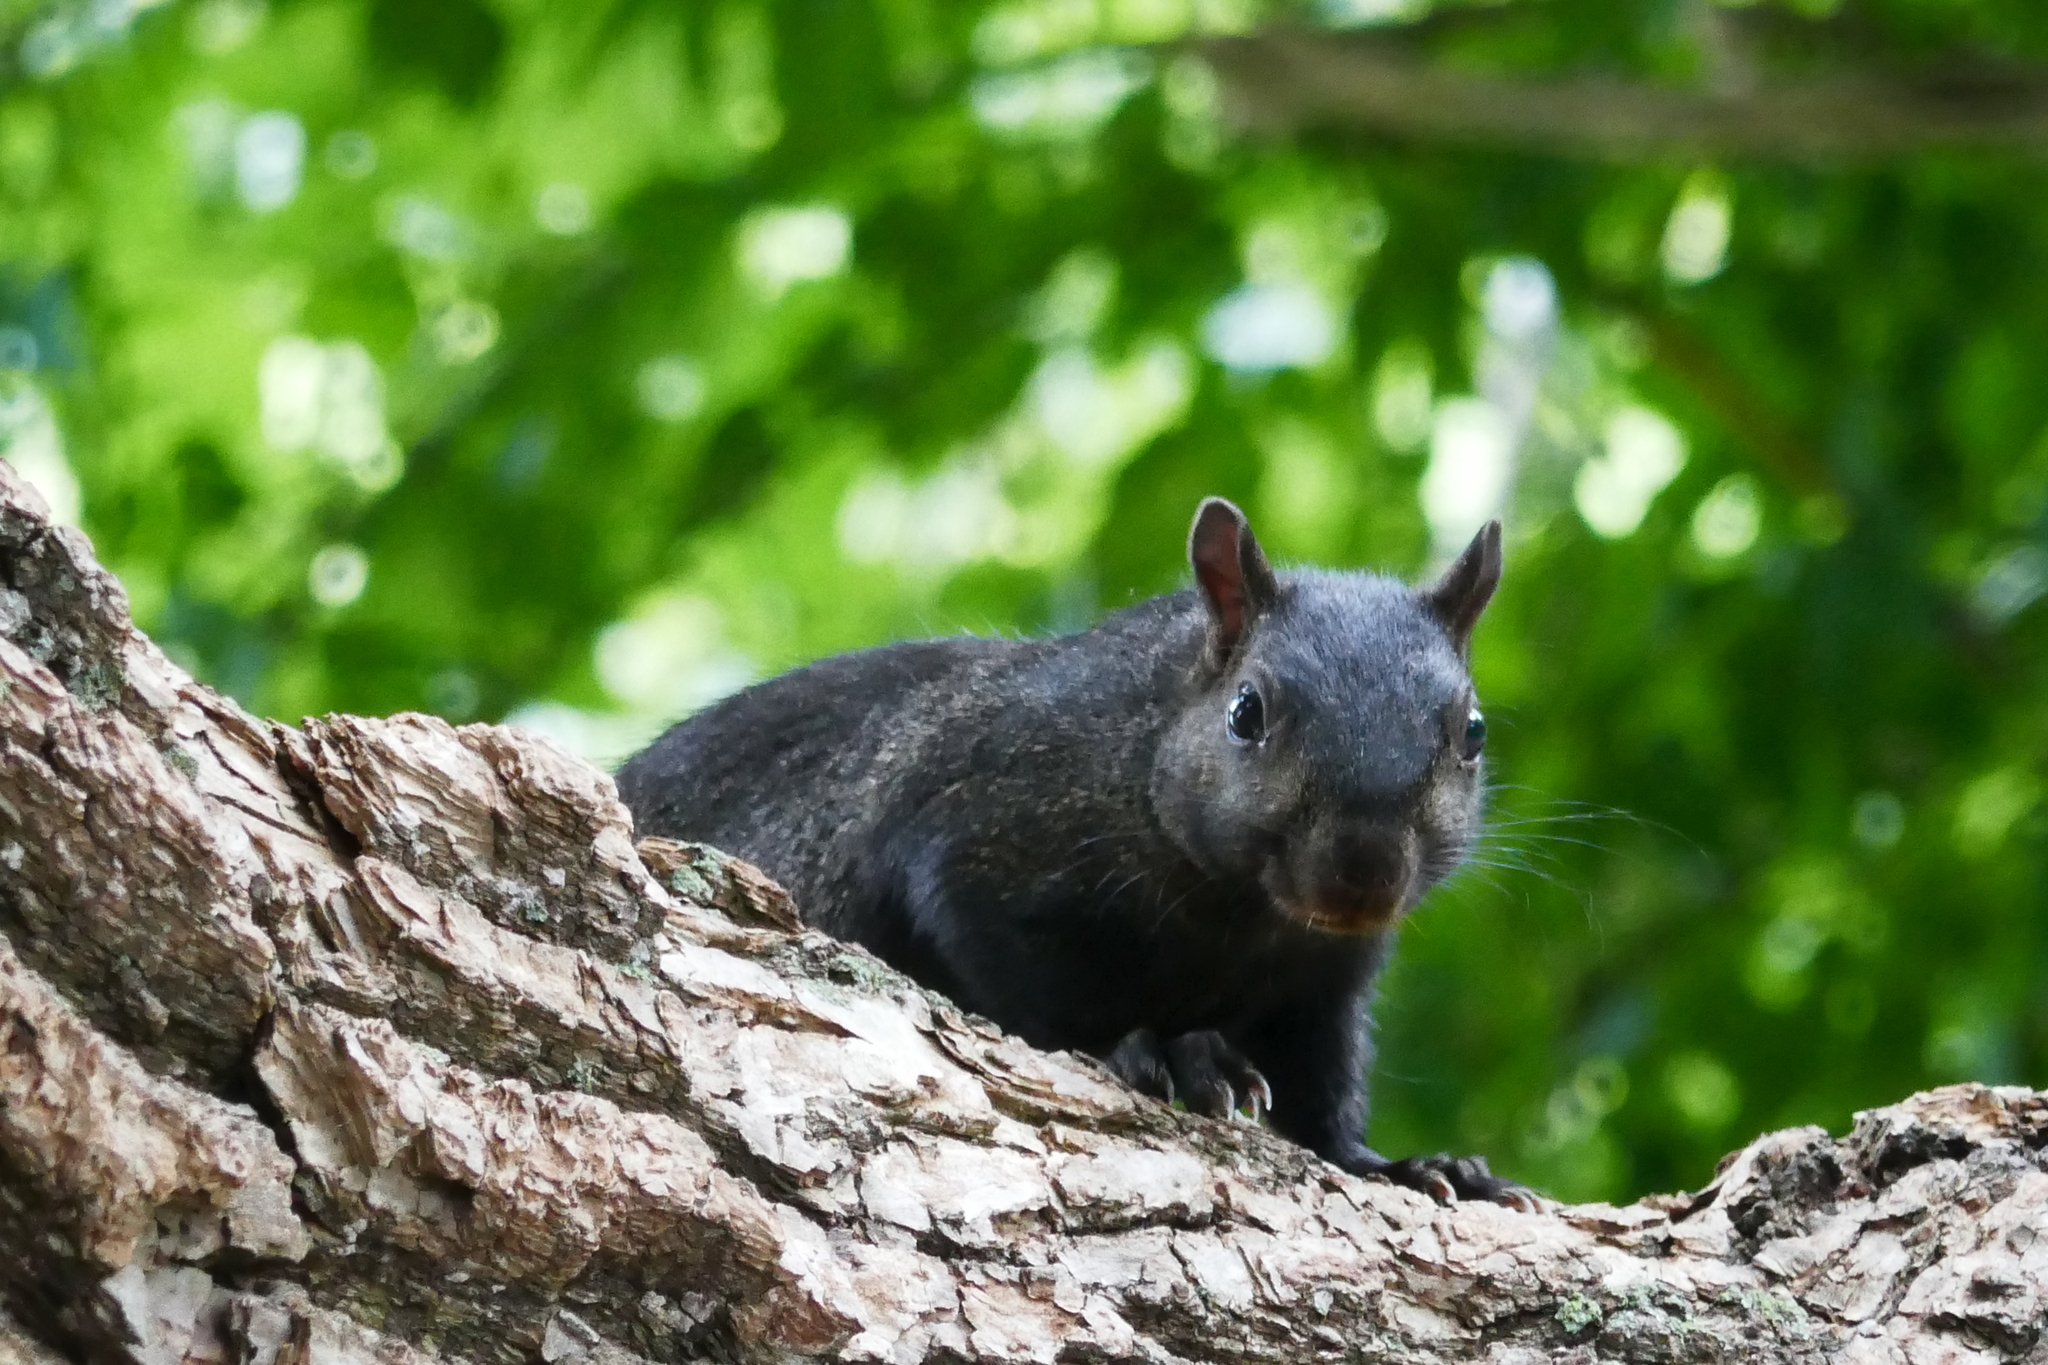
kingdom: Animalia
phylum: Chordata
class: Mammalia
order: Rodentia
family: Sciuridae
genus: Sciurus
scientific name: Sciurus carolinensis
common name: Eastern gray squirrel
